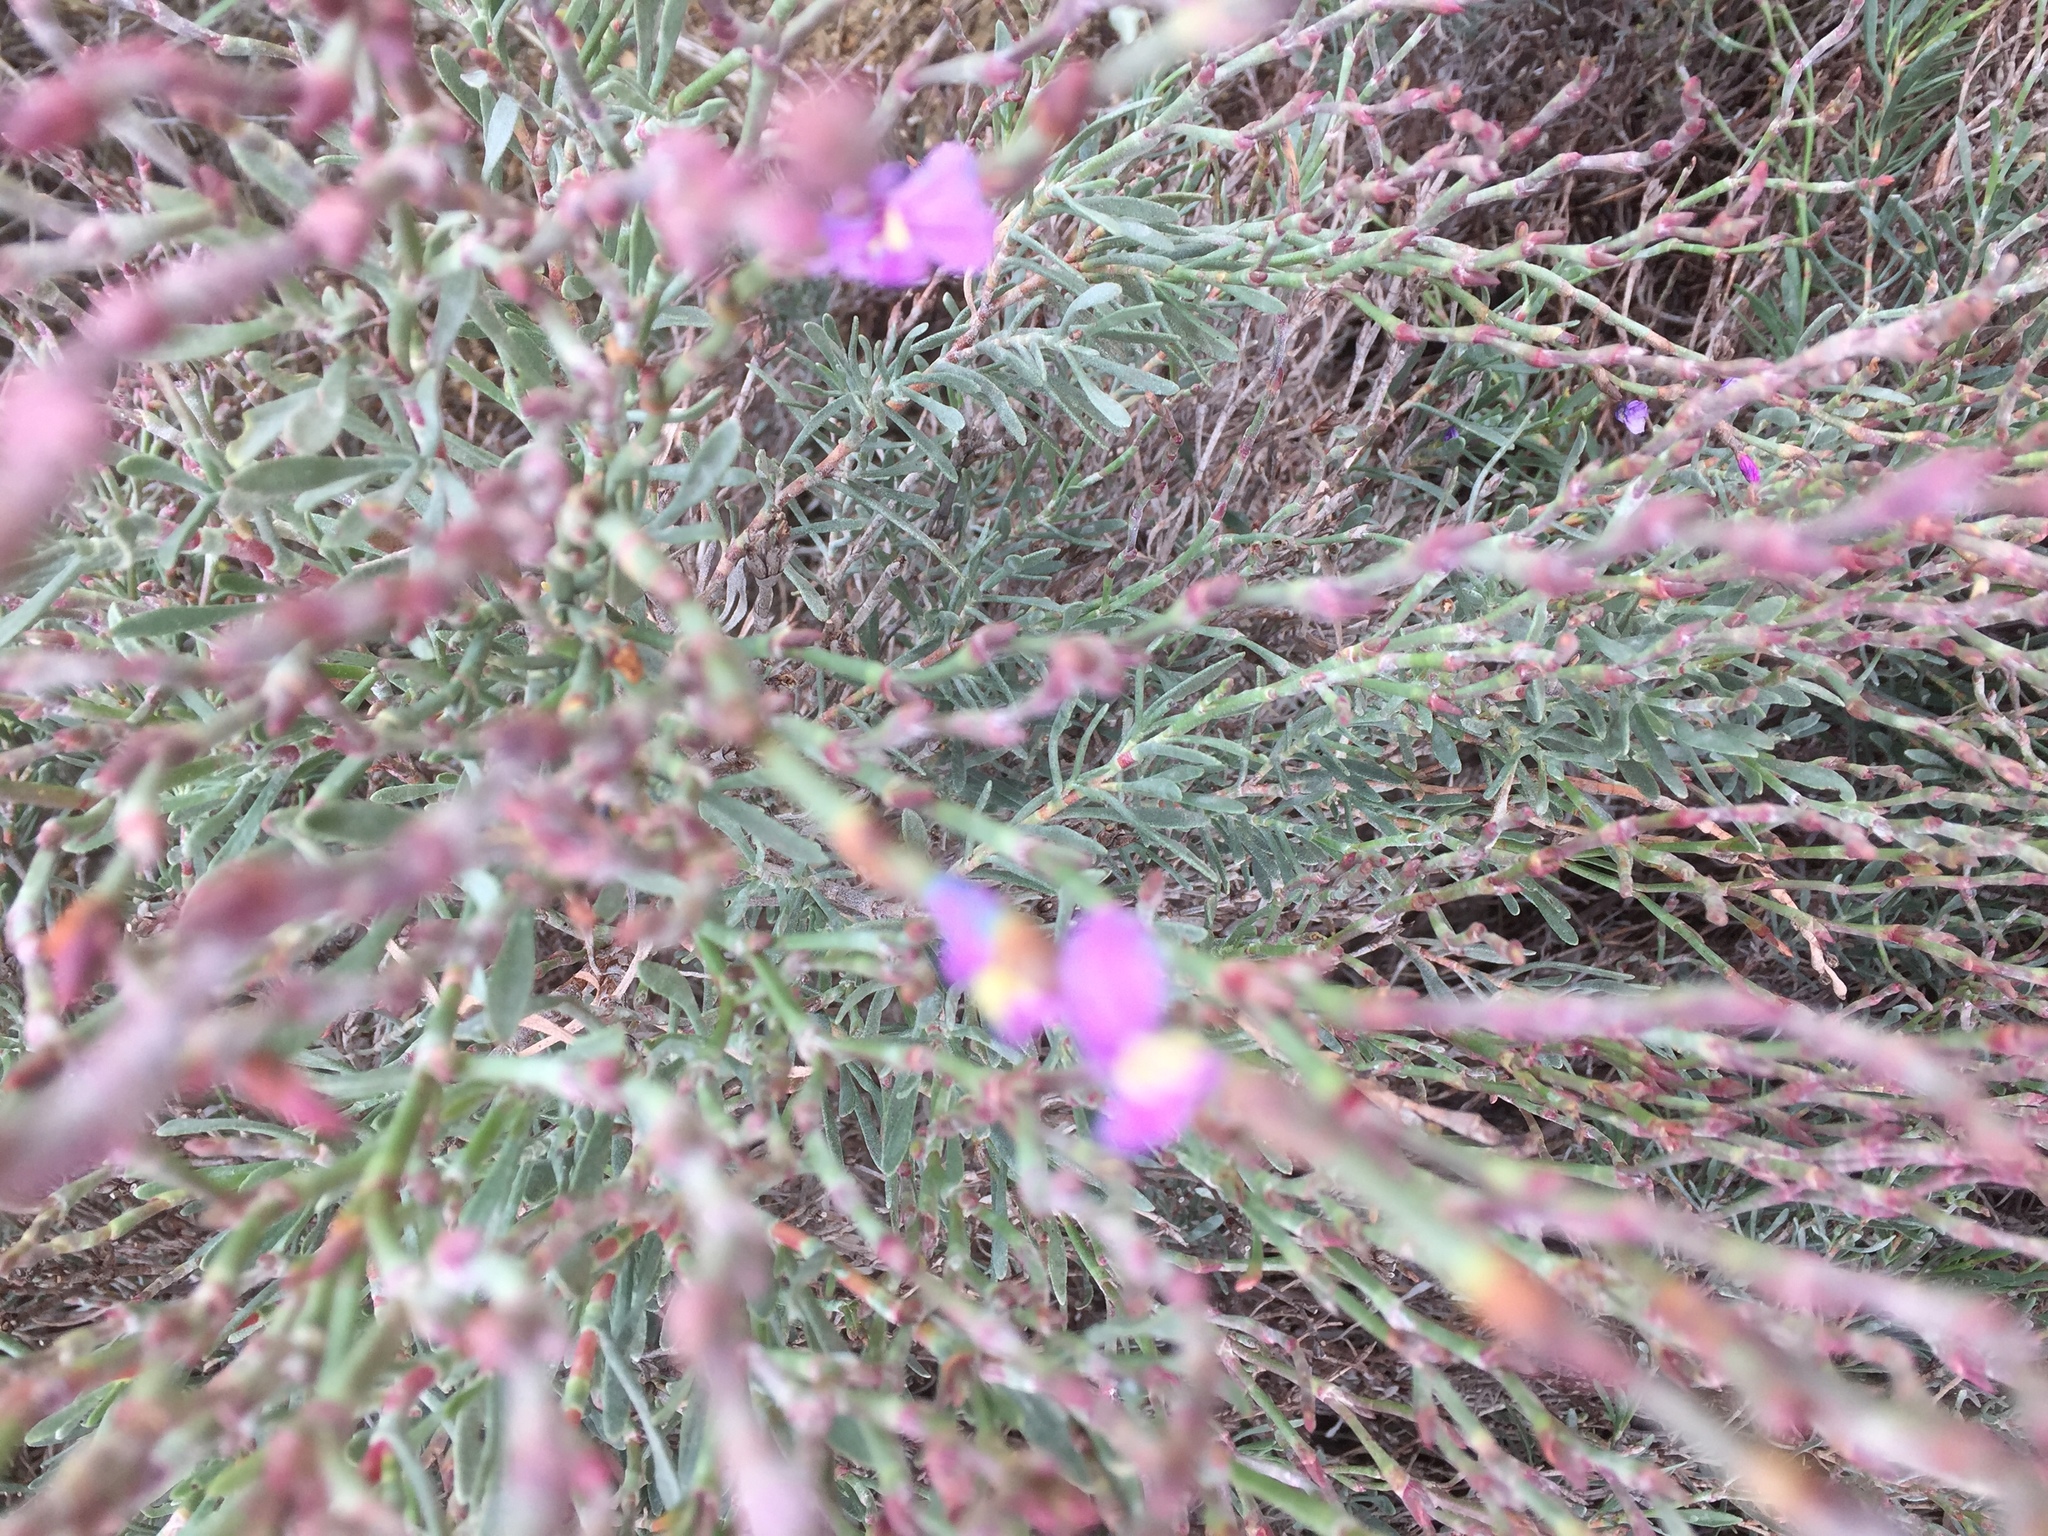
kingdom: Plantae
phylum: Tracheophyta
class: Magnoliopsida
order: Caryophyllales
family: Plumbaginaceae
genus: Limoniastrum
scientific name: Limoniastrum monopetalum
